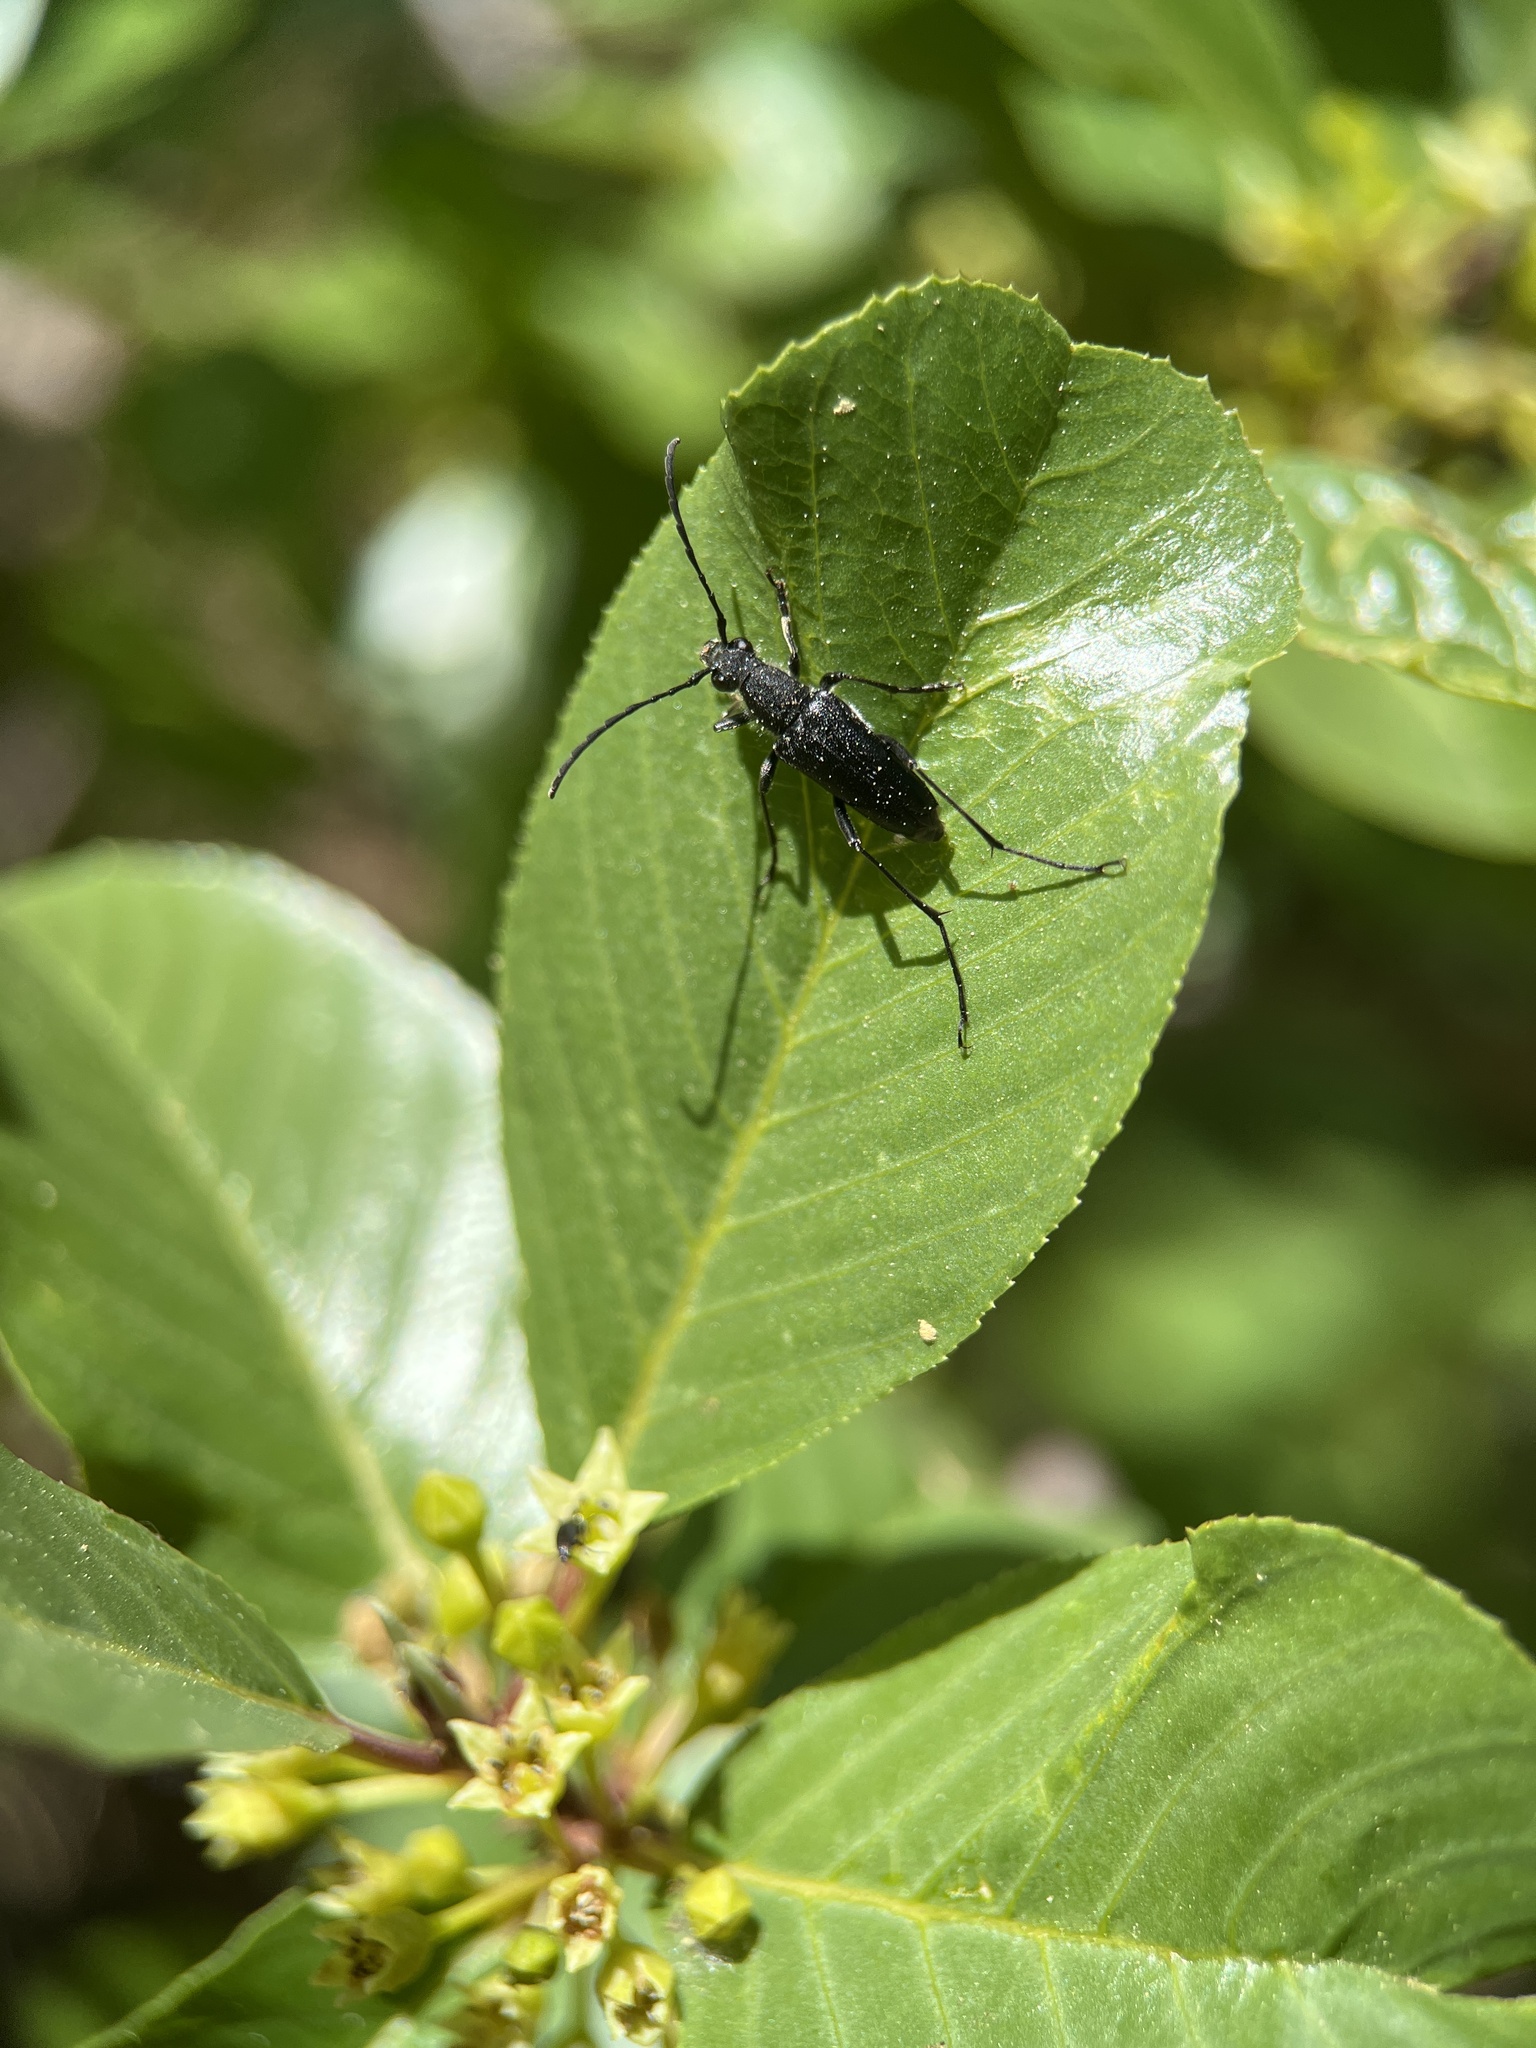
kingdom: Animalia
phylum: Arthropoda
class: Insecta
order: Coleoptera
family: Cerambycidae
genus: Anastrangalia
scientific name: Anastrangalia laetifica
